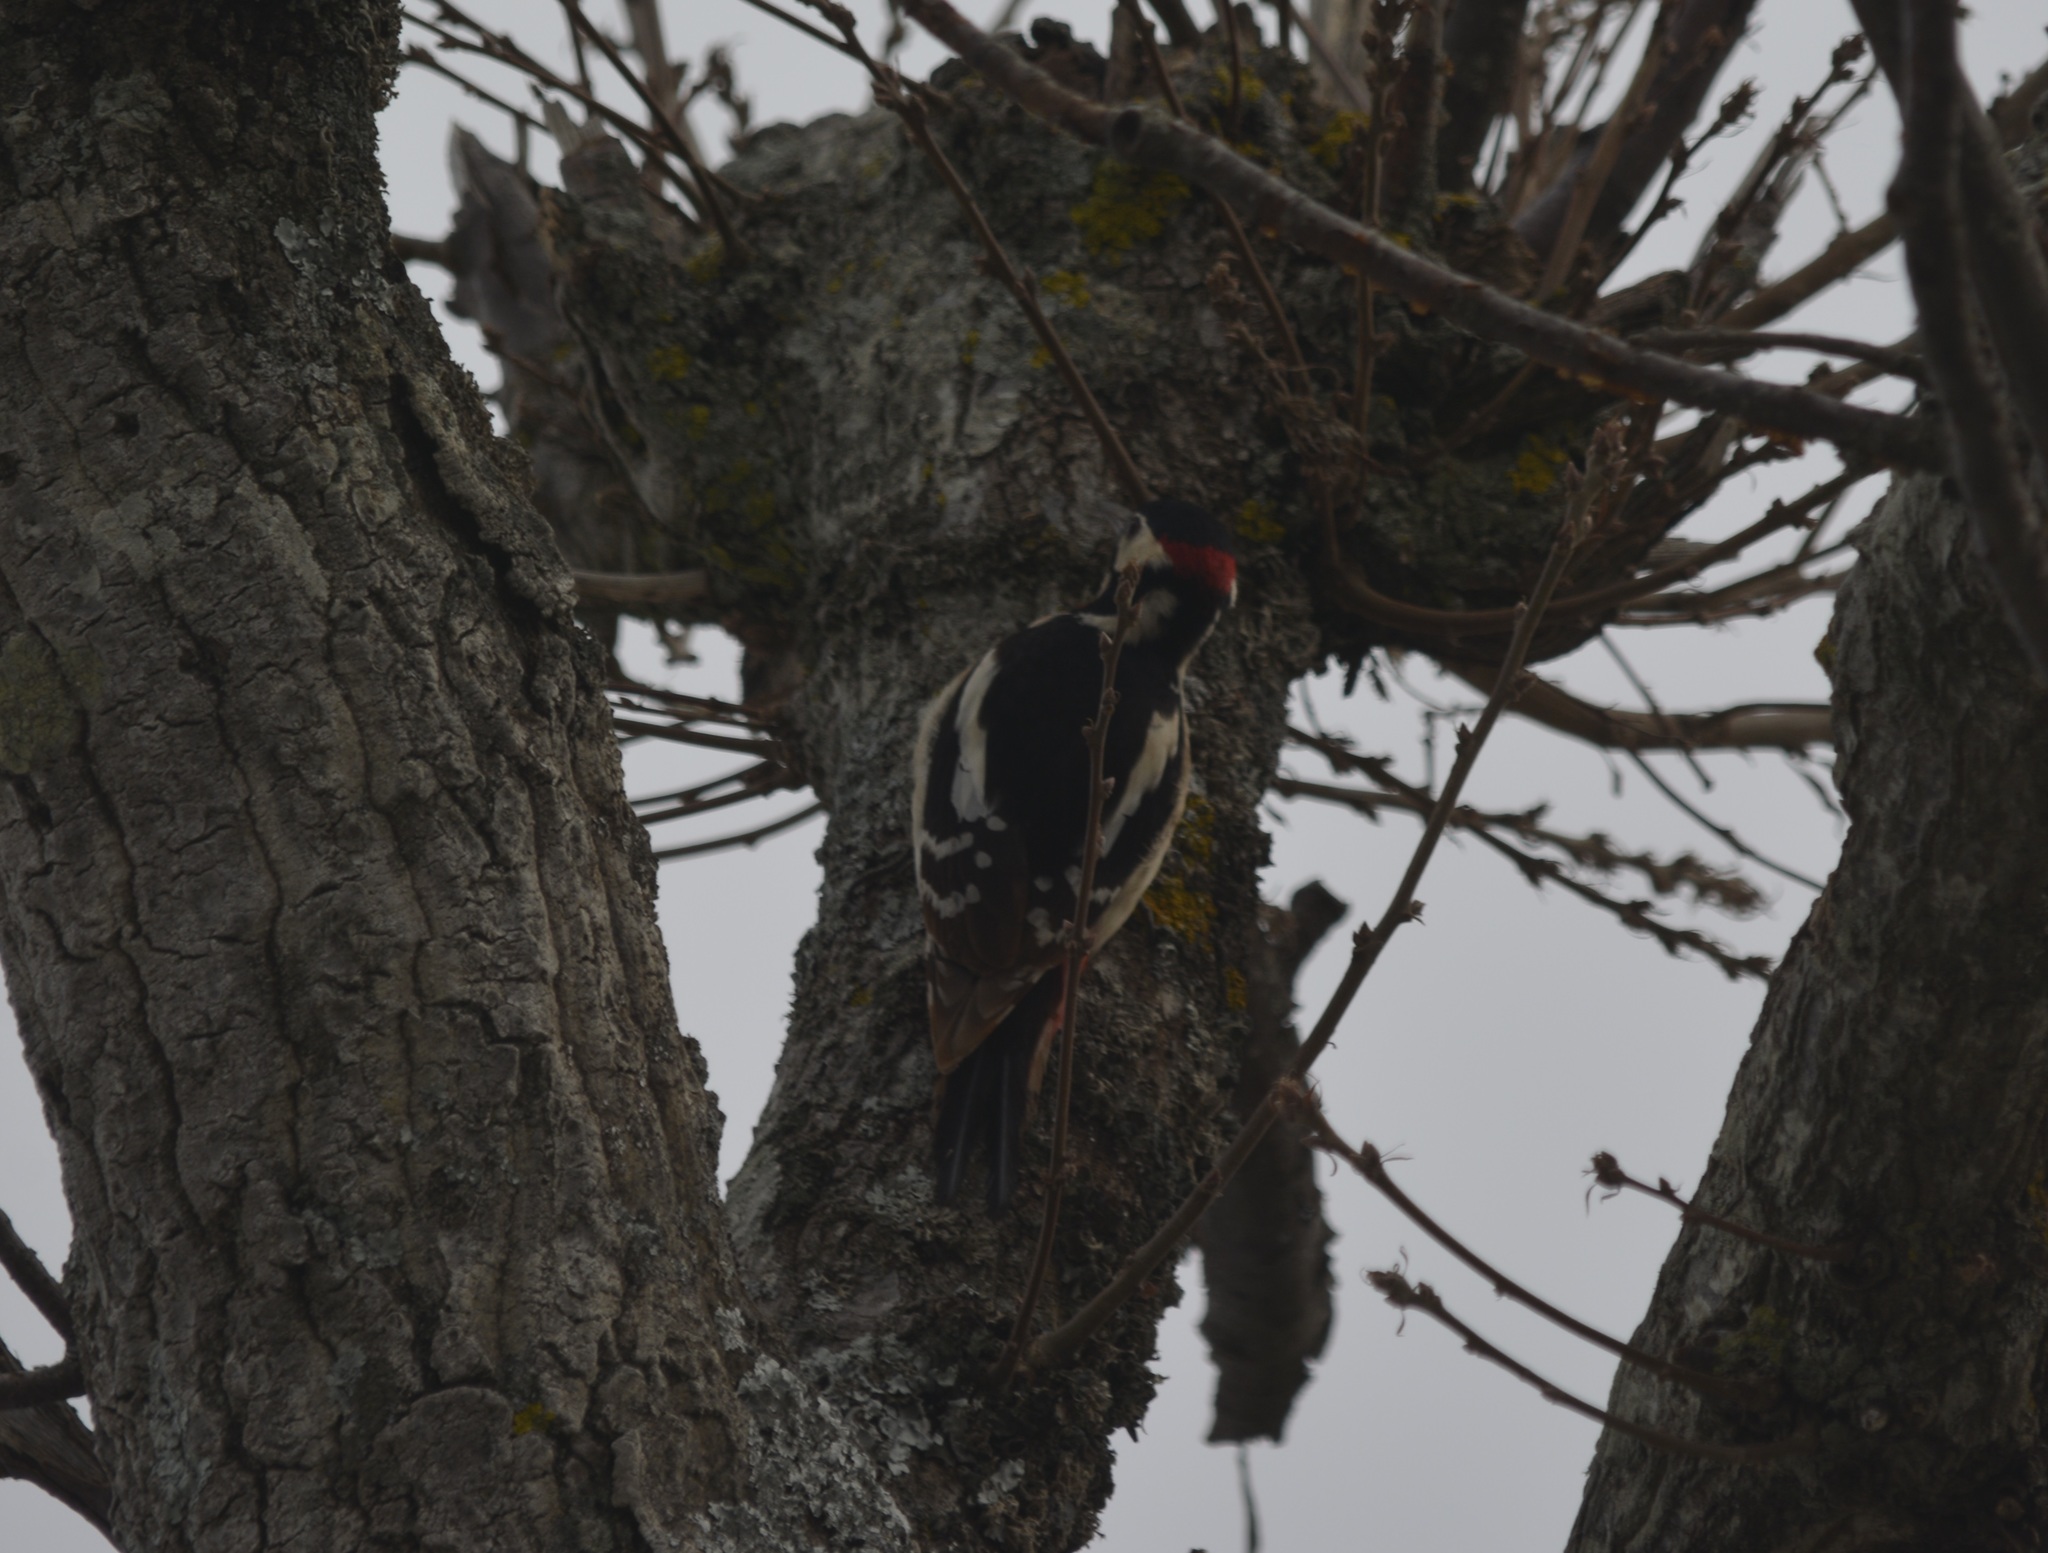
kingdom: Animalia
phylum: Chordata
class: Aves
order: Piciformes
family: Picidae
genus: Dendrocopos
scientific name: Dendrocopos major
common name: Great spotted woodpecker
